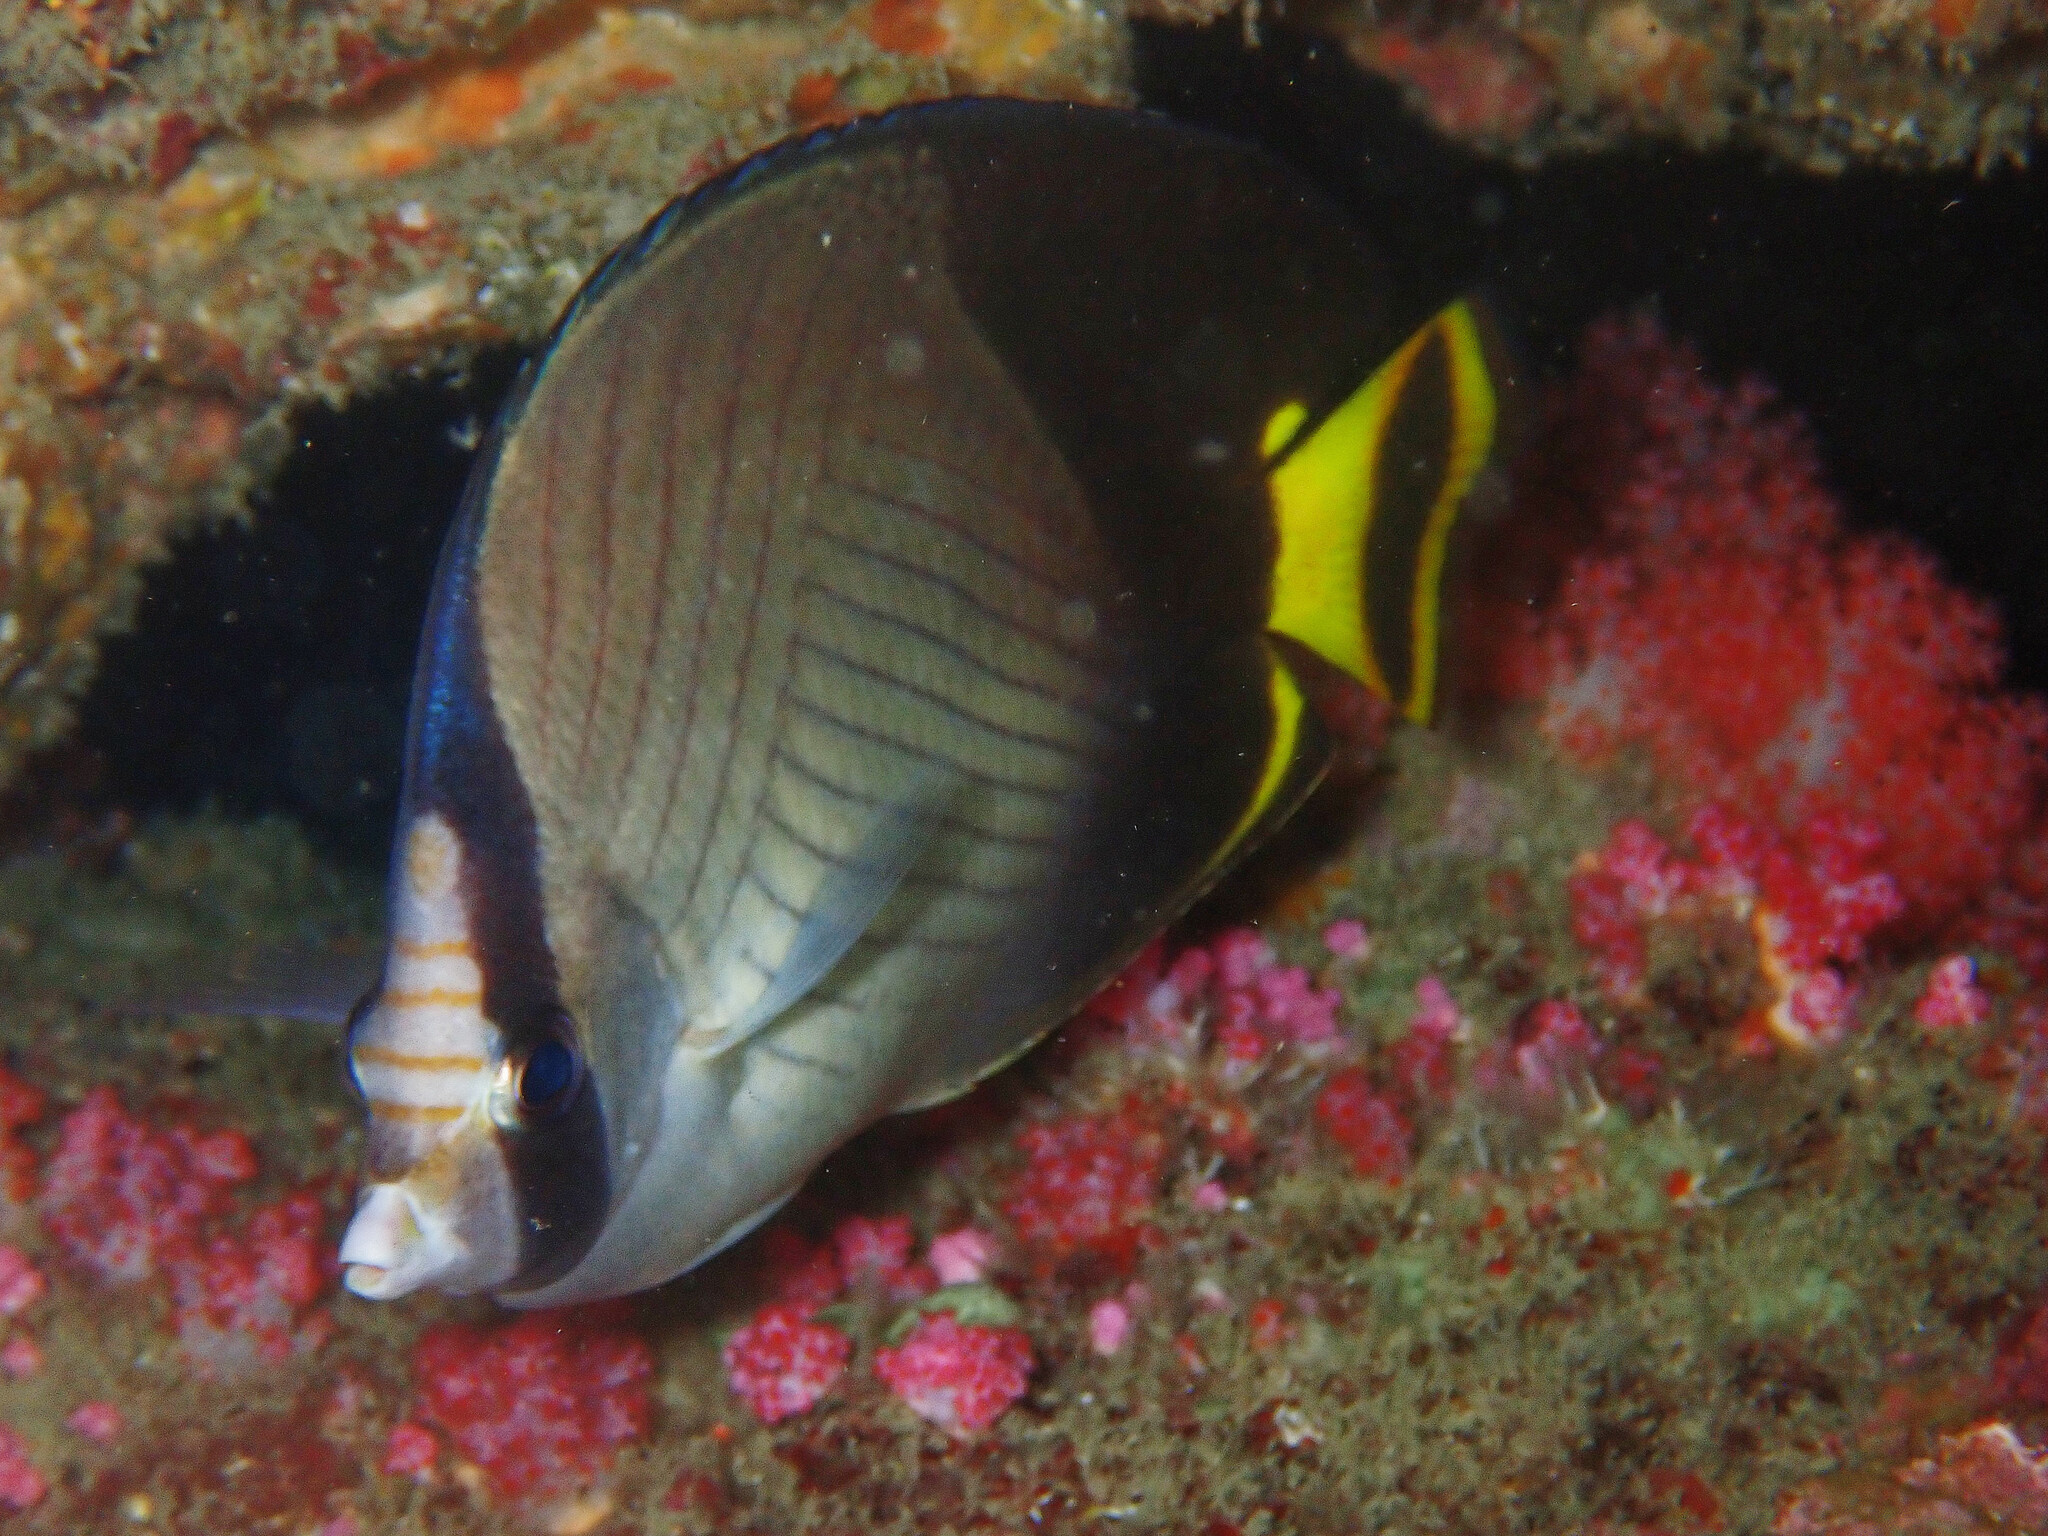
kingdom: Animalia
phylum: Chordata
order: Perciformes
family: Chaetodontidae
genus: Chaetodon
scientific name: Chaetodon decussatus
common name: Indian vagabond butterflyfish
